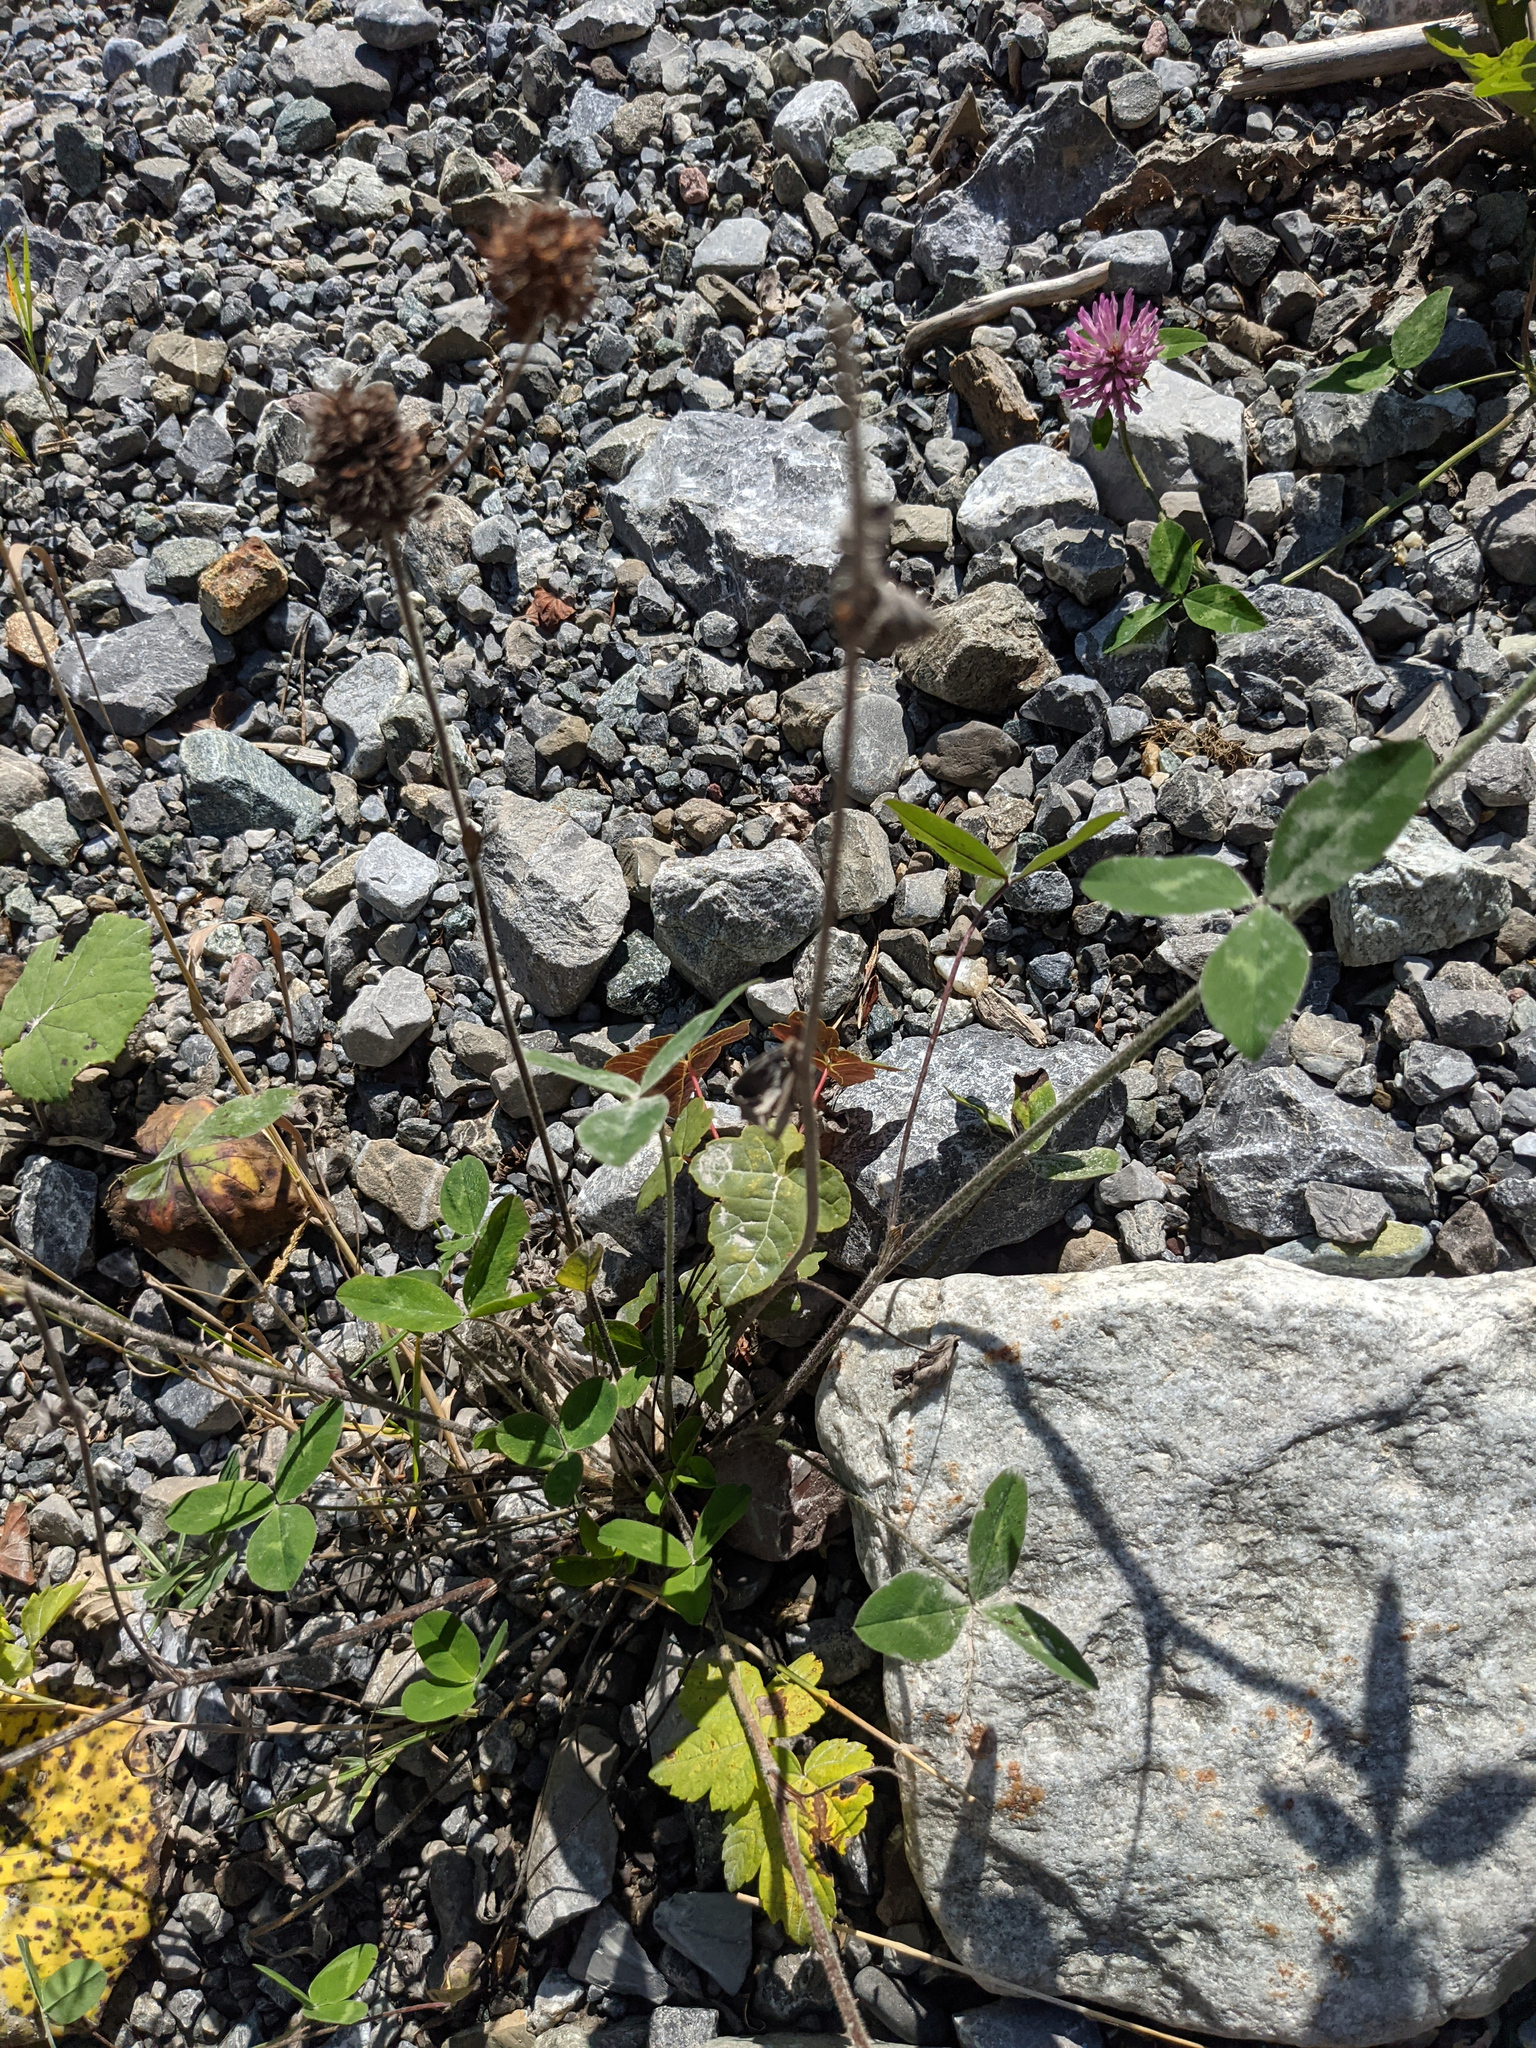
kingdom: Plantae
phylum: Tracheophyta
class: Magnoliopsida
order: Fabales
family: Fabaceae
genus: Trifolium
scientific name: Trifolium pratense
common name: Red clover
